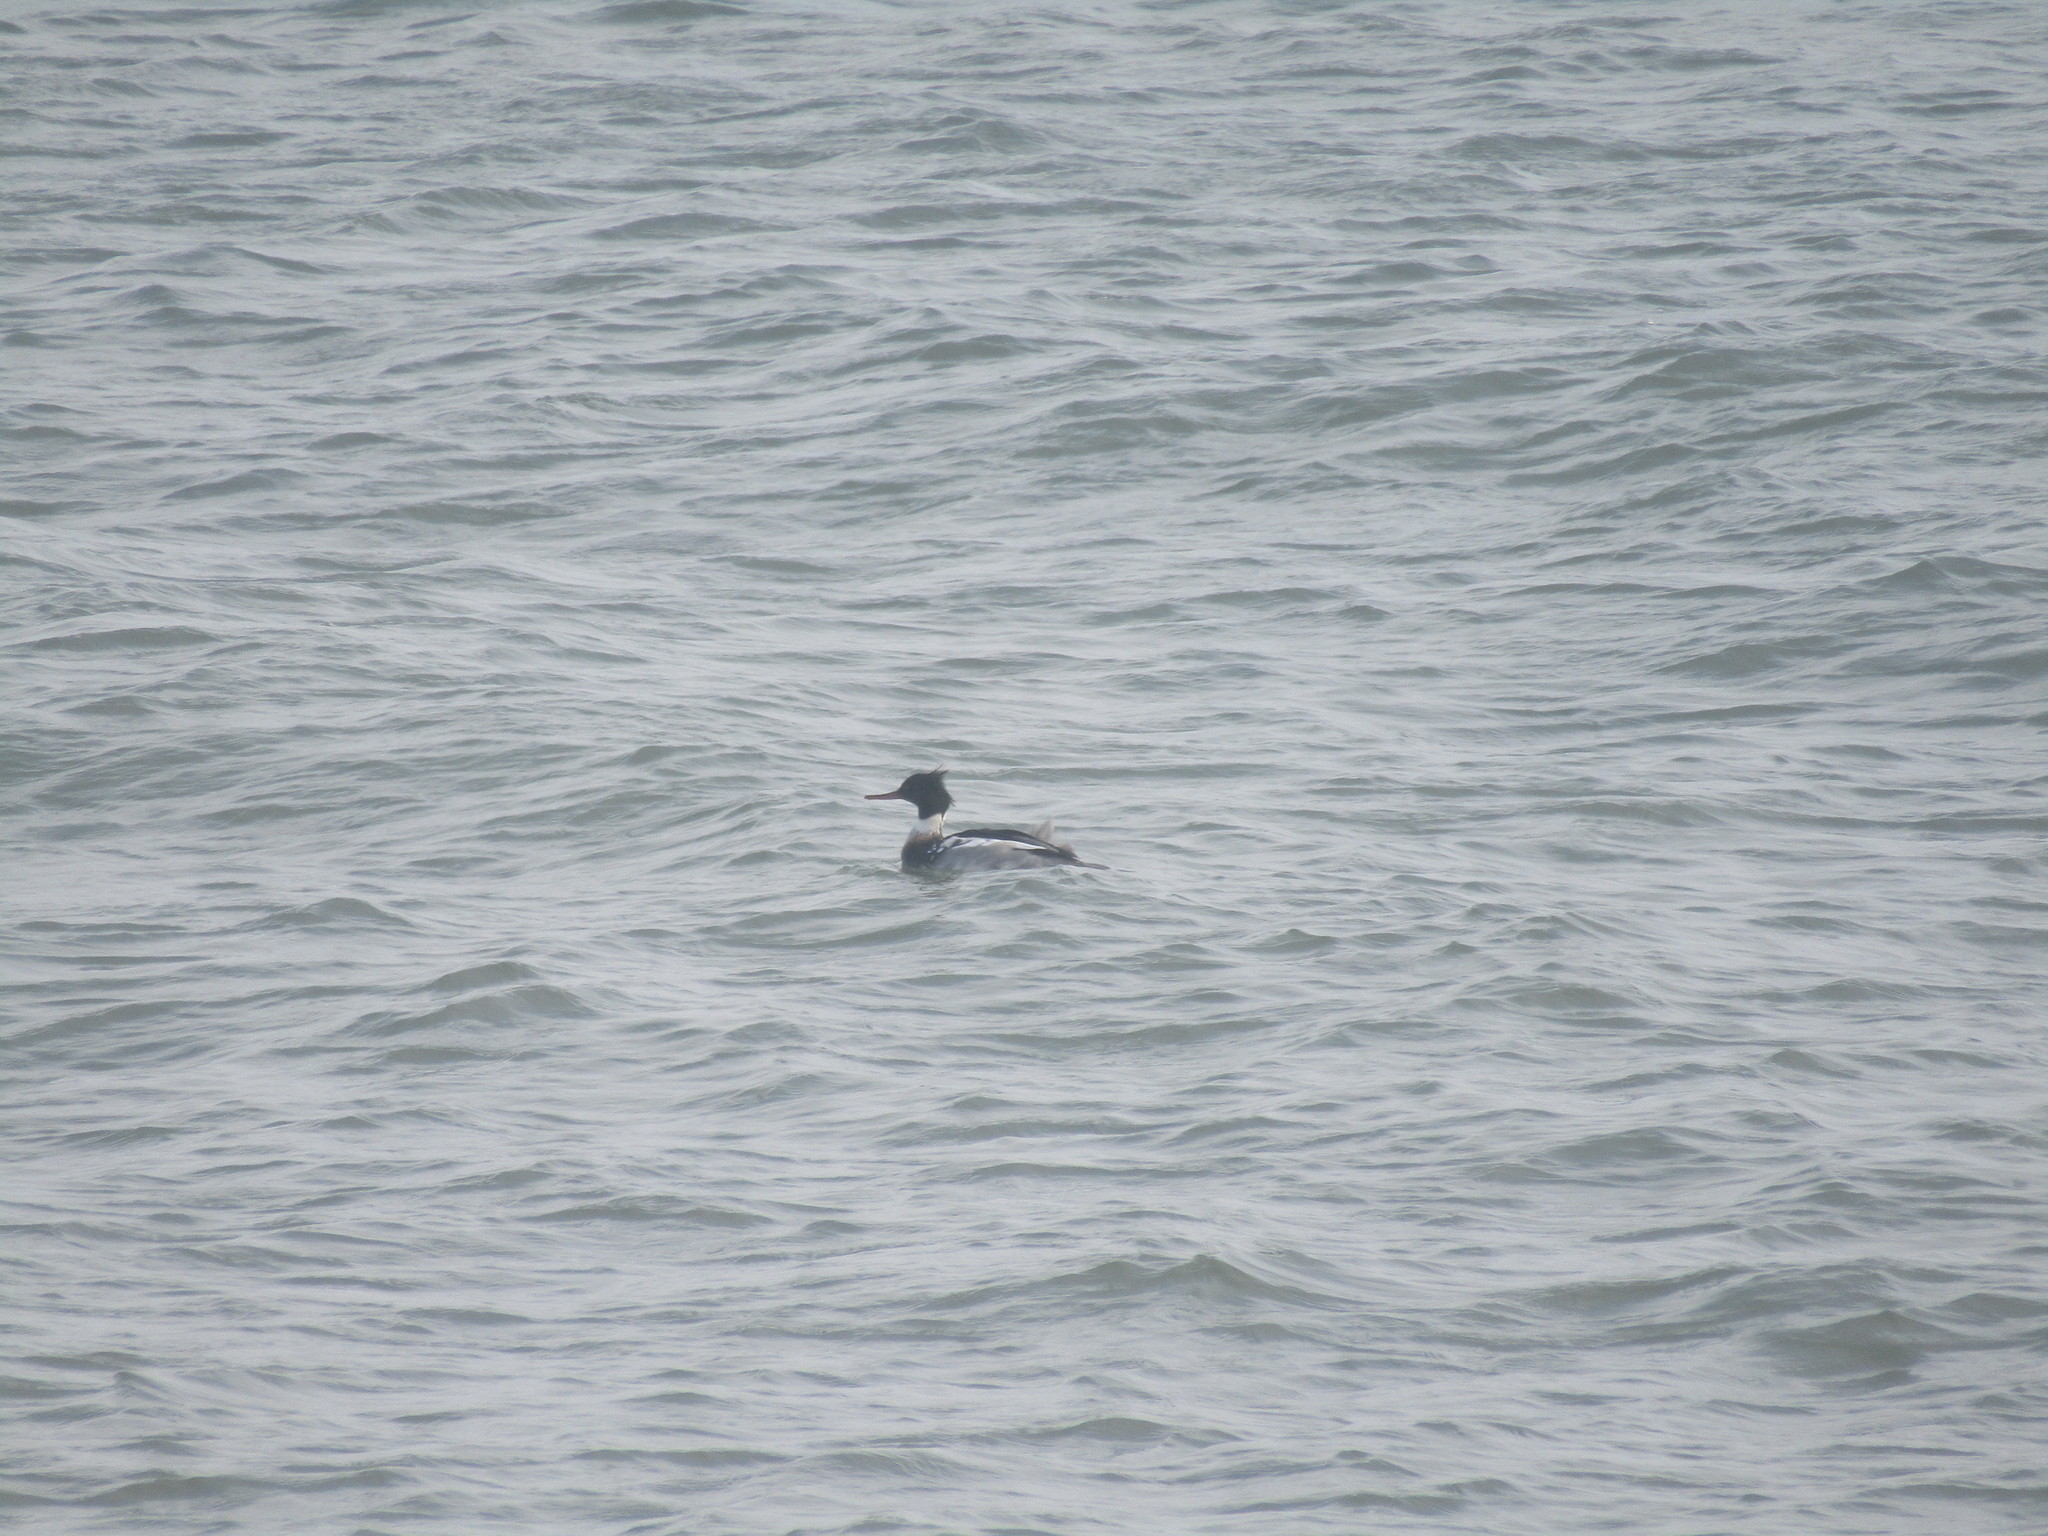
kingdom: Animalia
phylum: Chordata
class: Aves
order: Anseriformes
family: Anatidae
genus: Mergus
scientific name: Mergus serrator
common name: Red-breasted merganser
